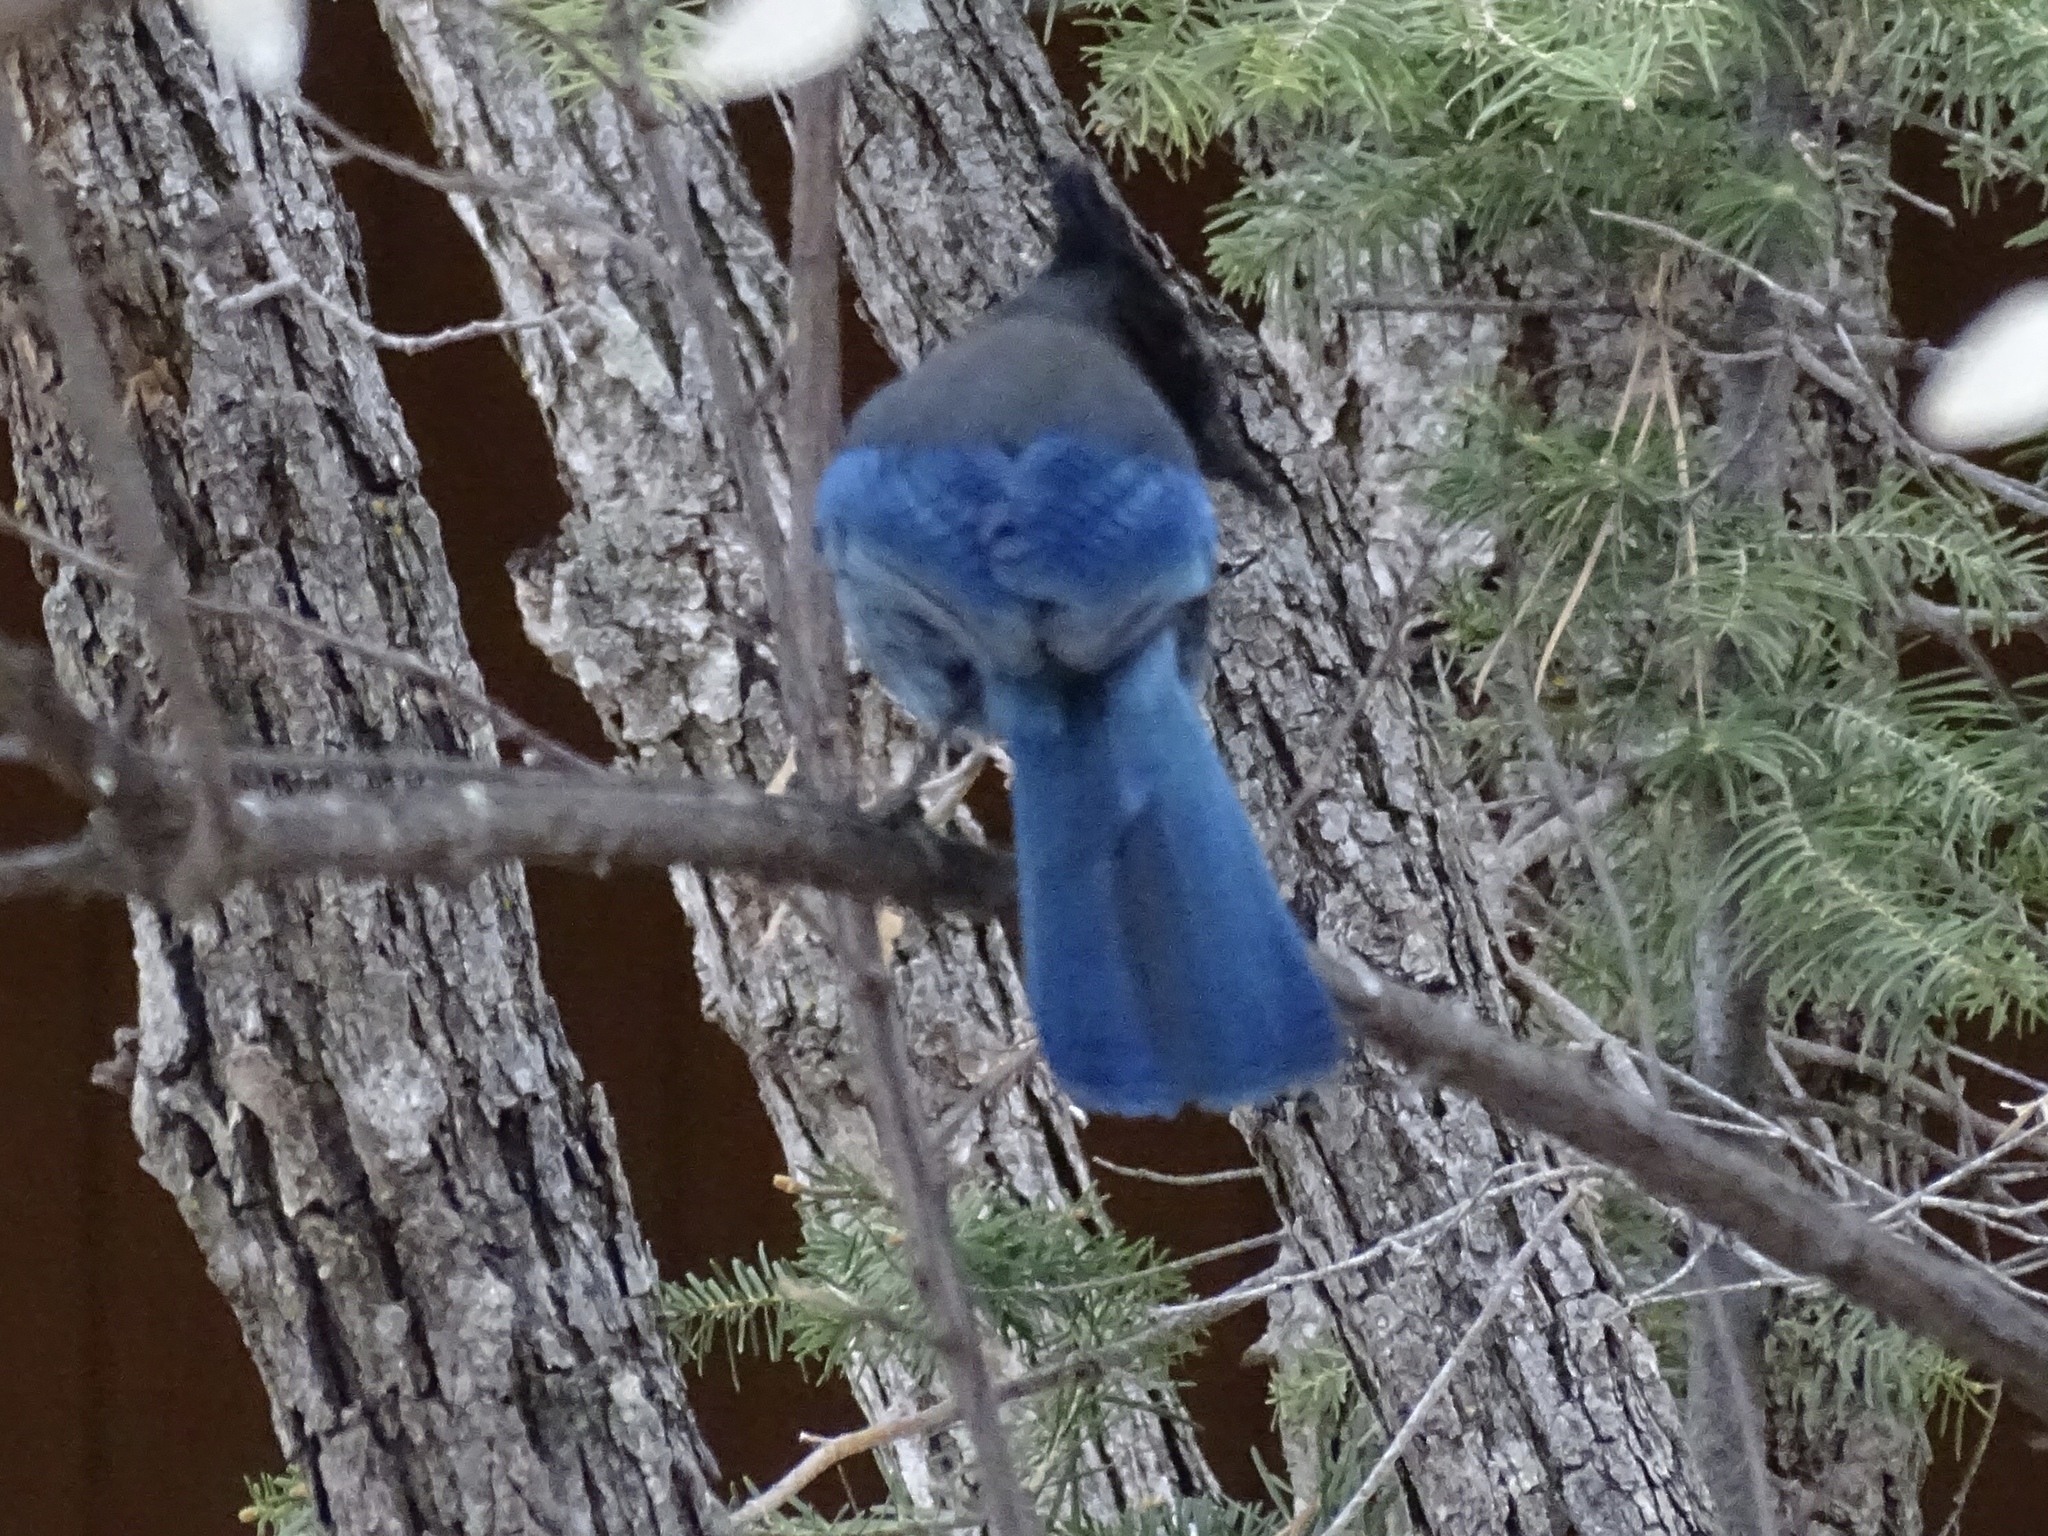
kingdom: Animalia
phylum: Chordata
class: Aves
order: Passeriformes
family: Corvidae
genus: Cyanocitta
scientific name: Cyanocitta stelleri
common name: Steller's jay
